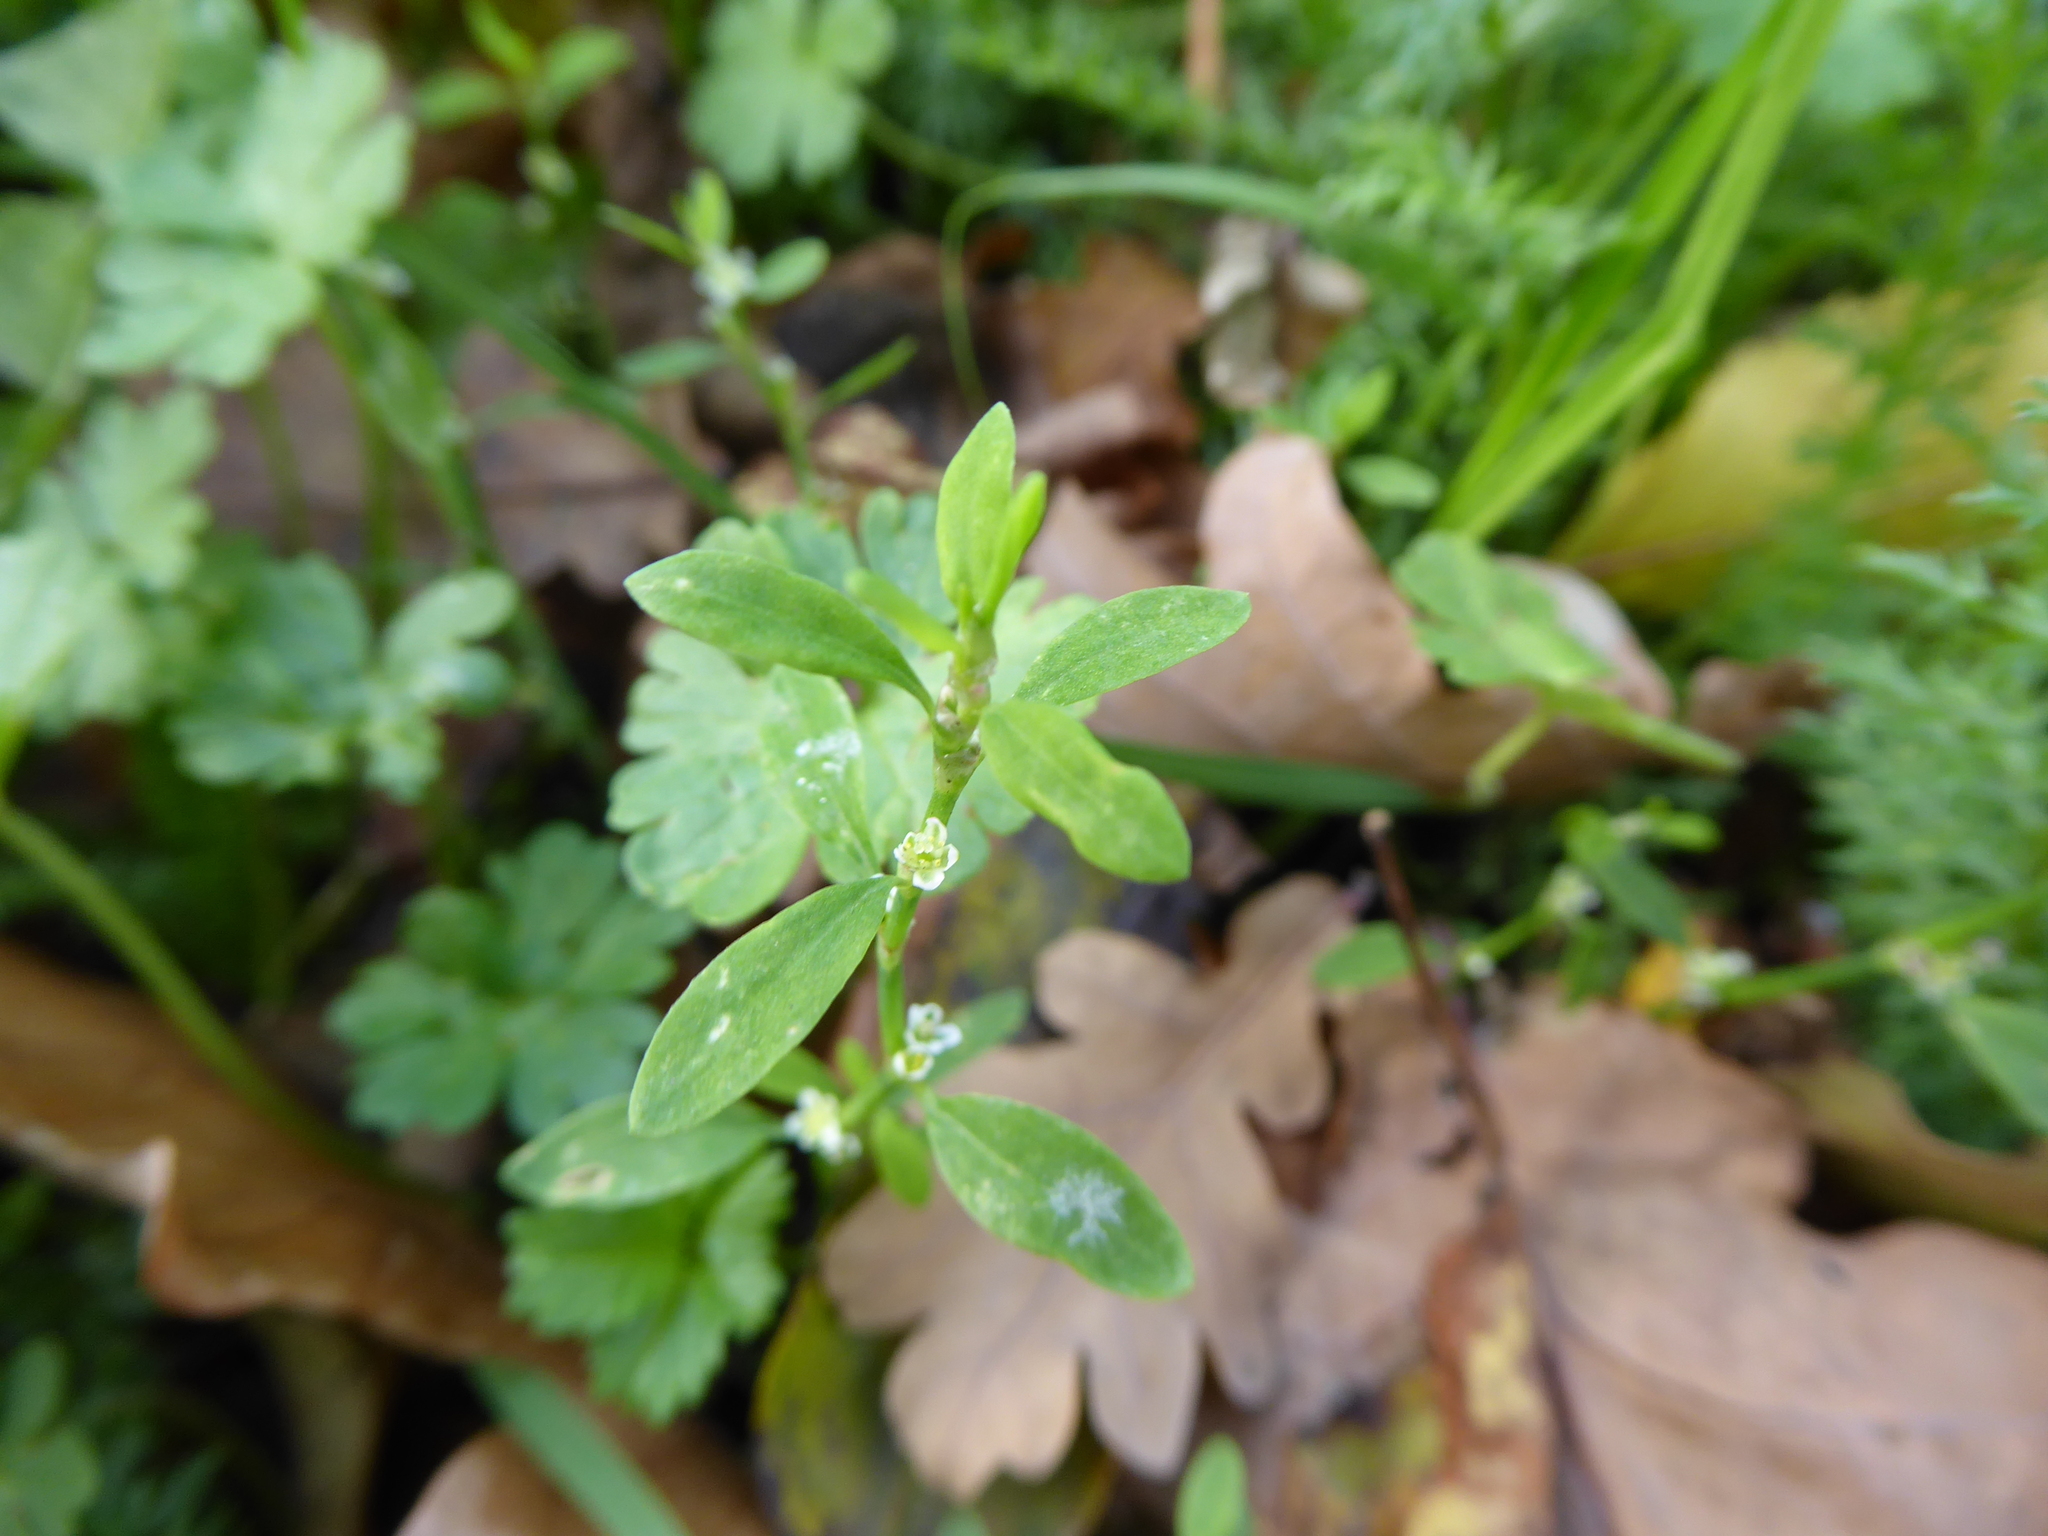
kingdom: Plantae
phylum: Tracheophyta
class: Magnoliopsida
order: Caryophyllales
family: Polygonaceae
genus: Polygonum
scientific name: Polygonum
